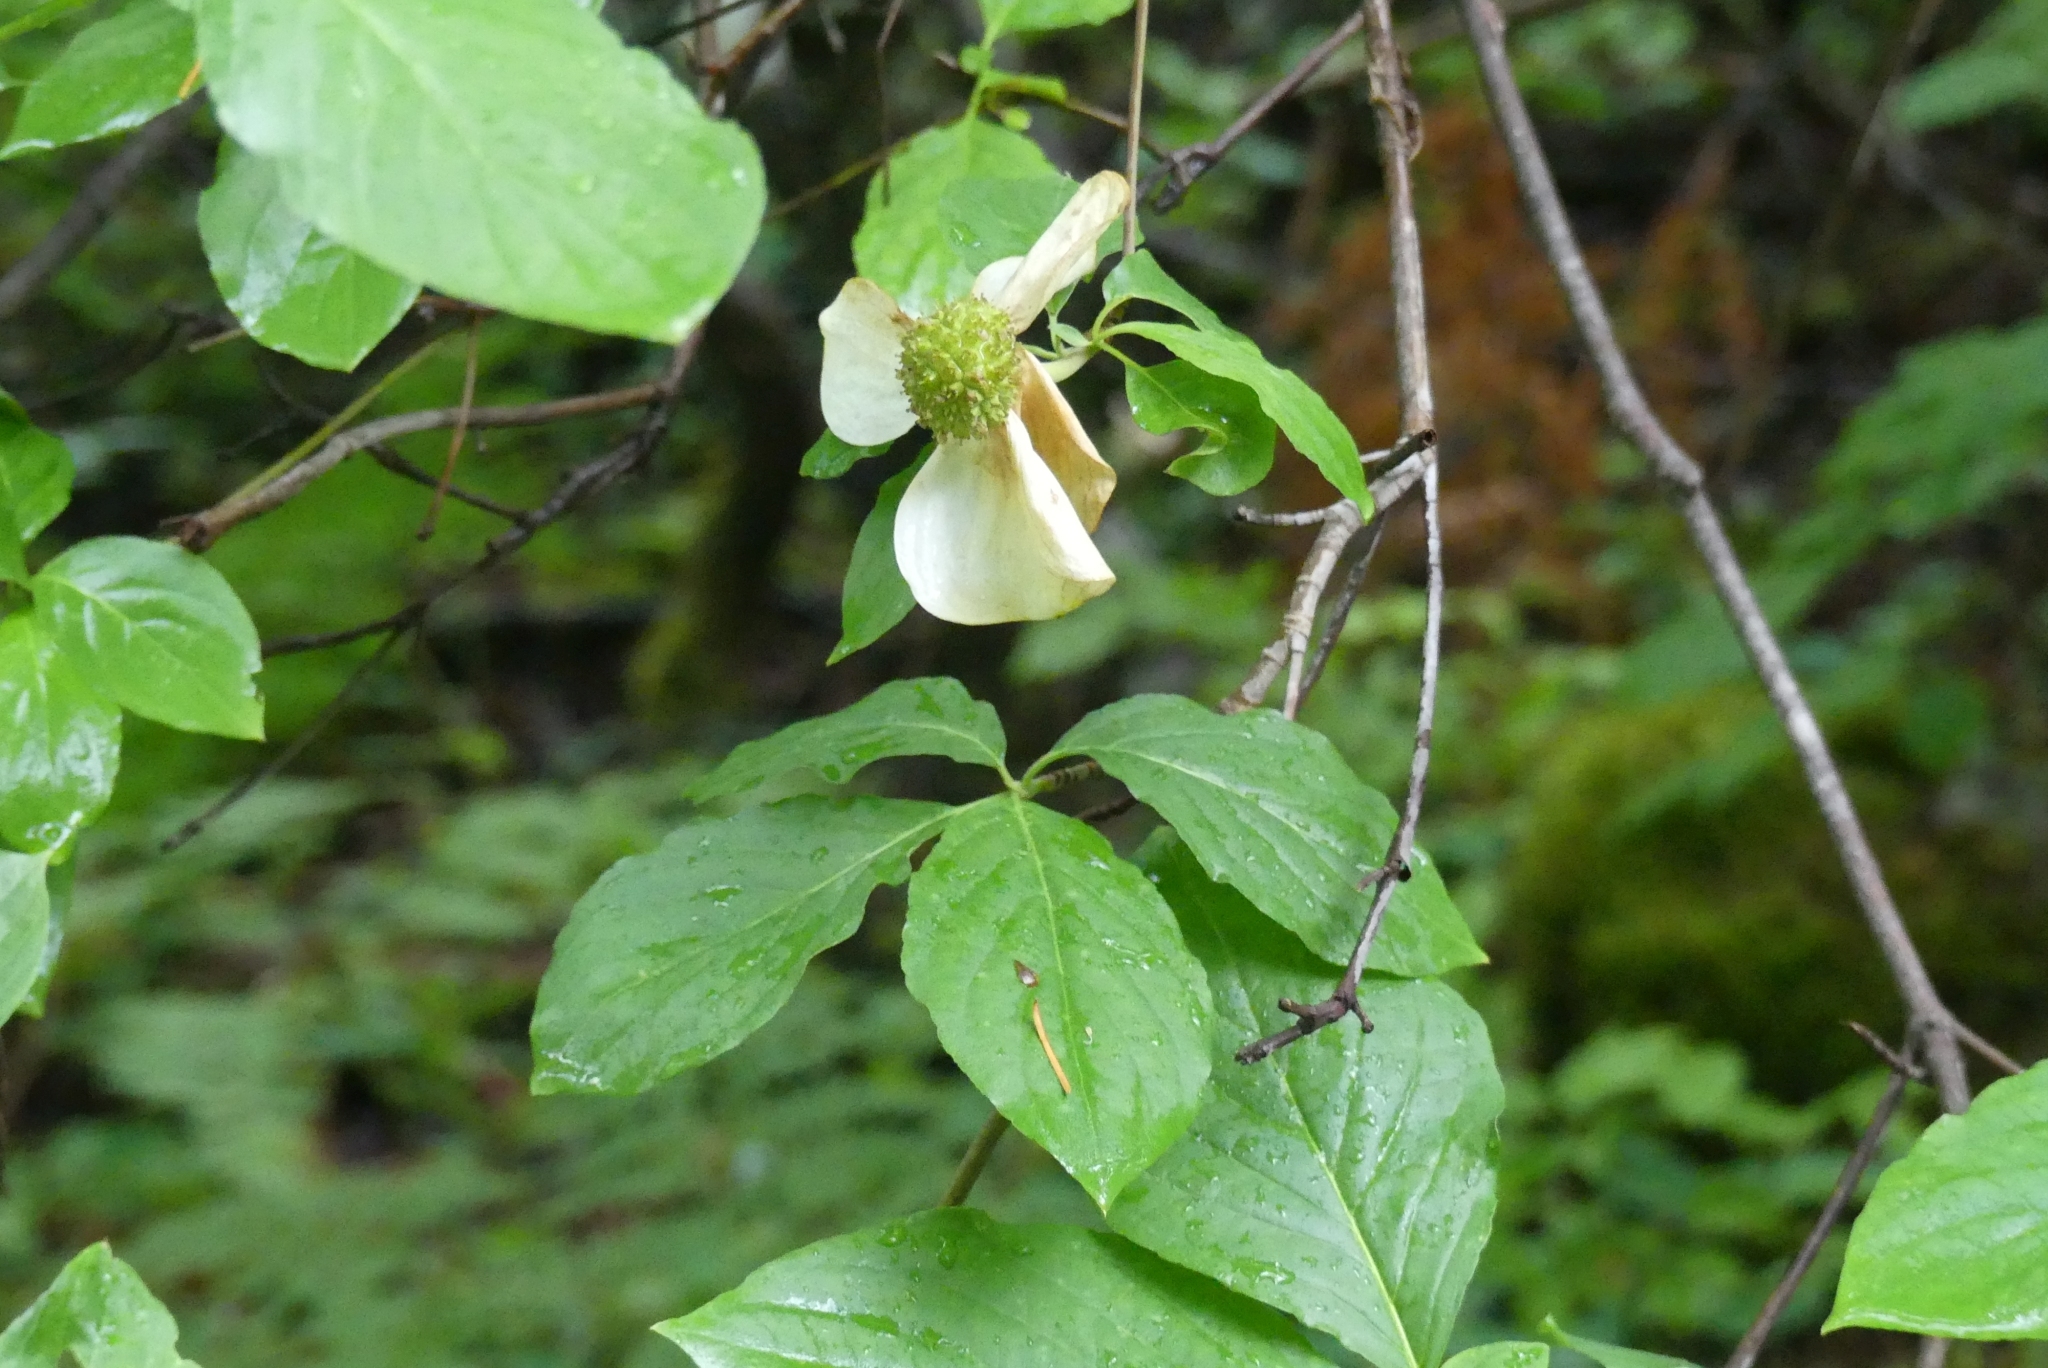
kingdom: Plantae
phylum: Tracheophyta
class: Magnoliopsida
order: Cornales
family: Cornaceae
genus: Cornus
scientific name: Cornus nuttallii
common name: Pacific dogwood
